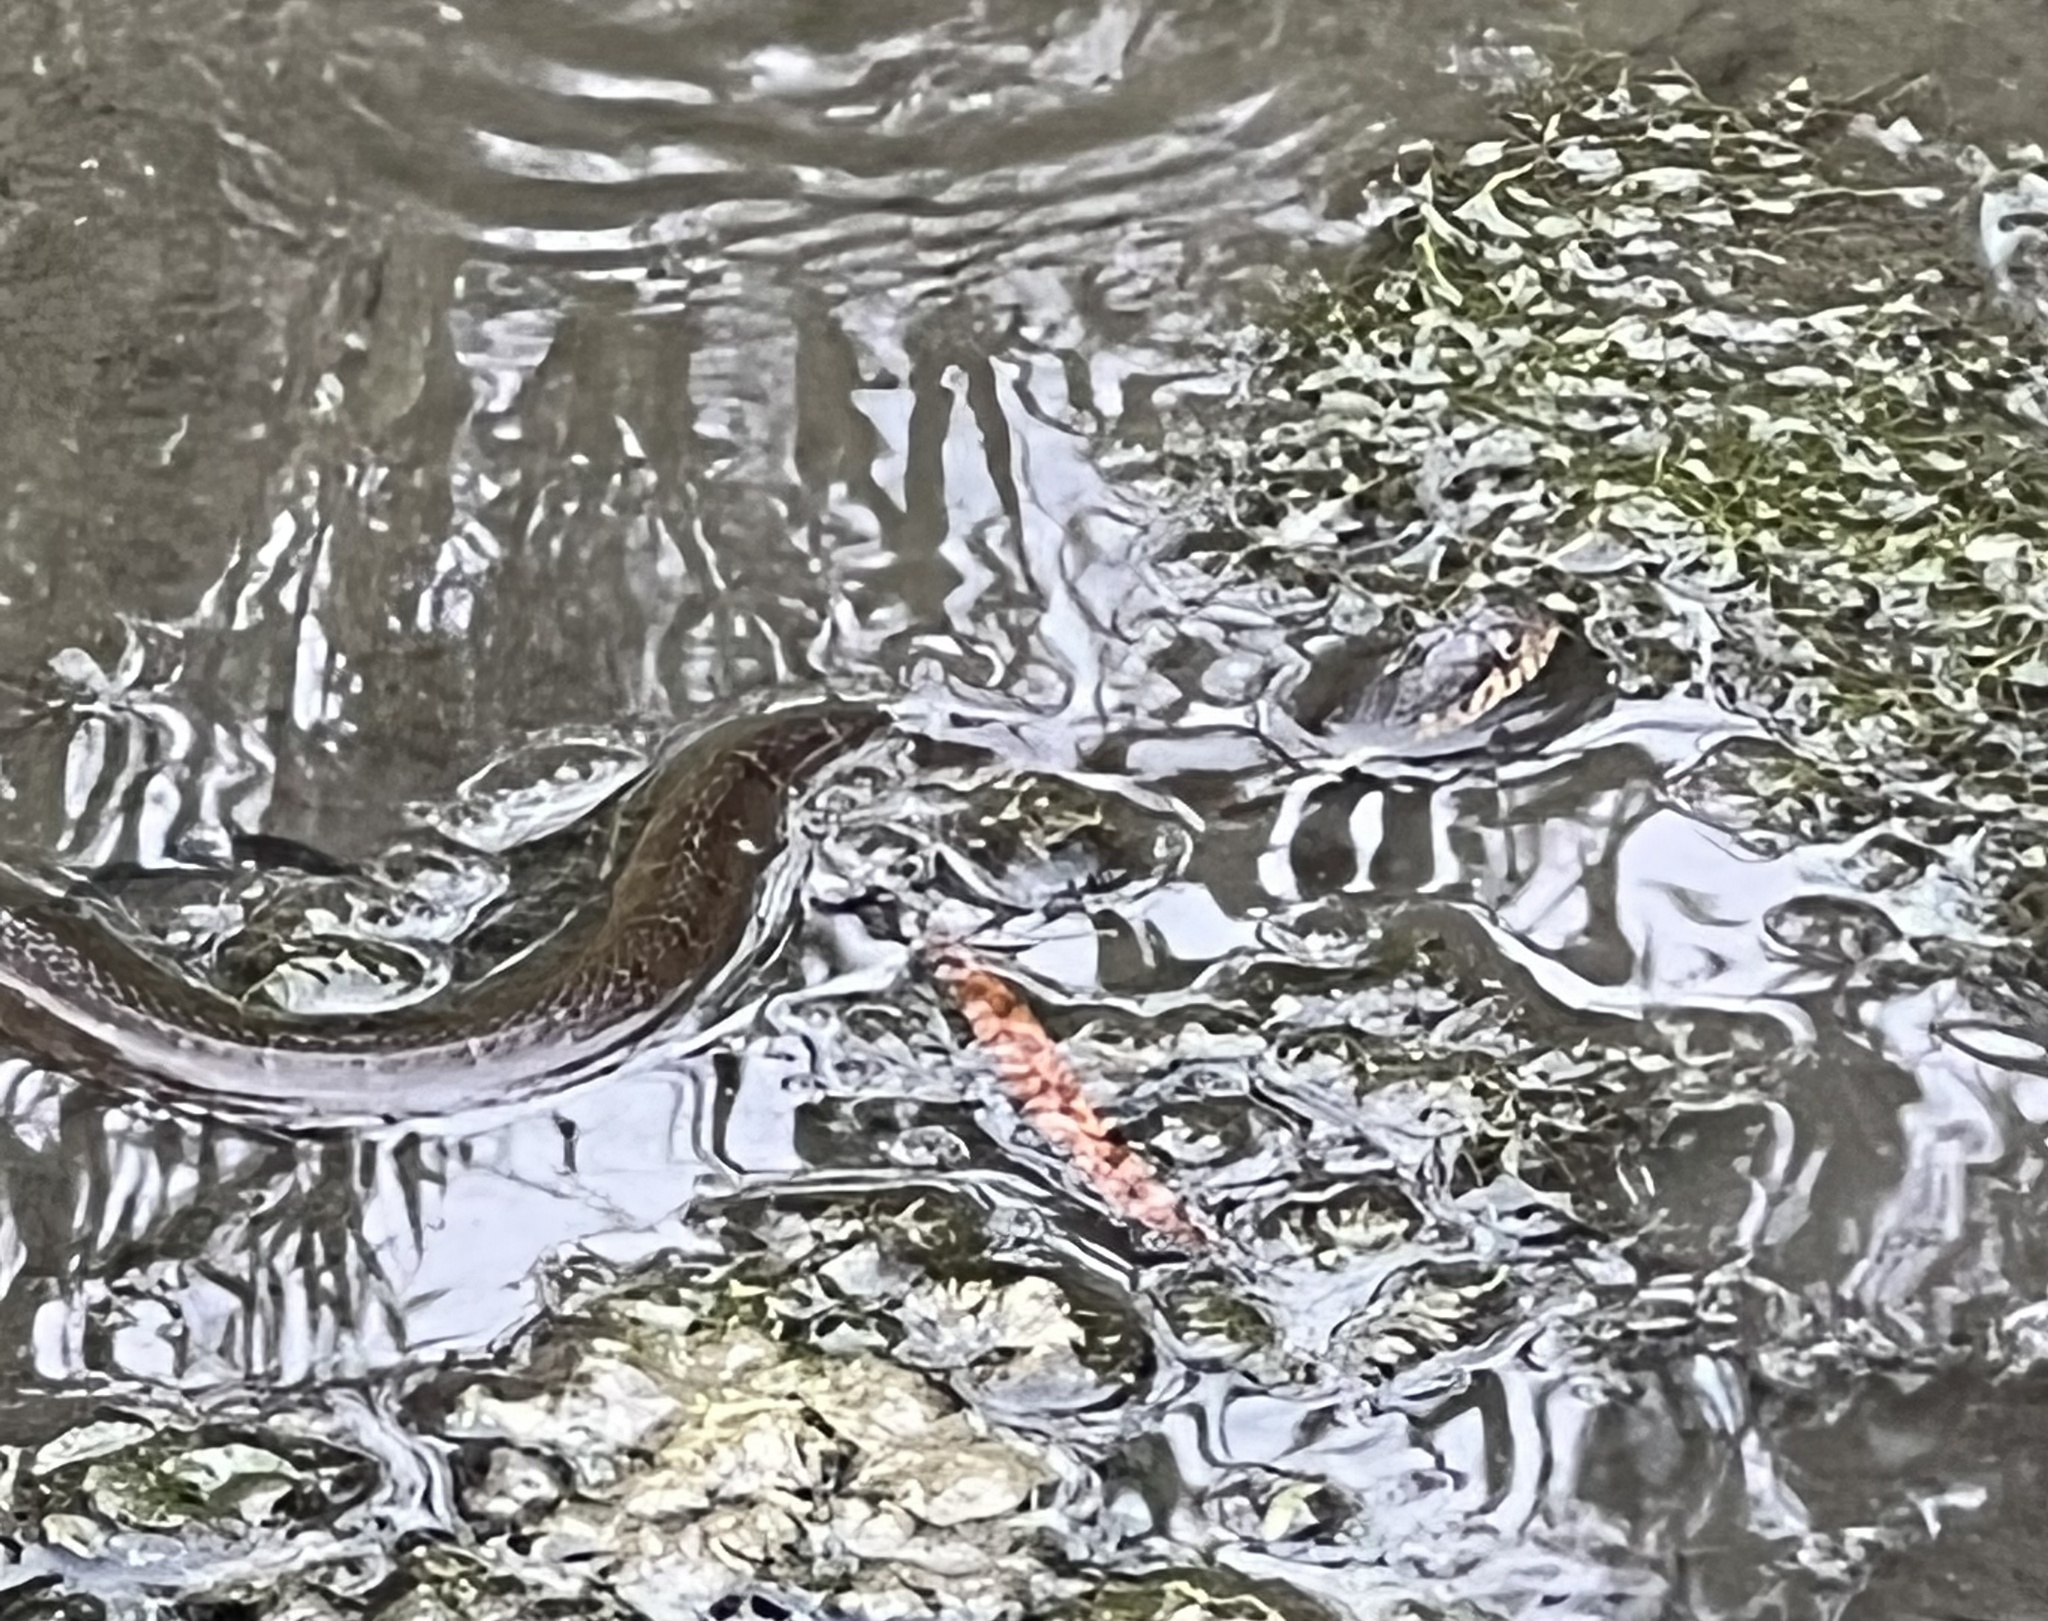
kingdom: Animalia
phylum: Chordata
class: Squamata
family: Colubridae
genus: Nerodia
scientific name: Nerodia erythrogaster
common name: Plainbelly water snake
